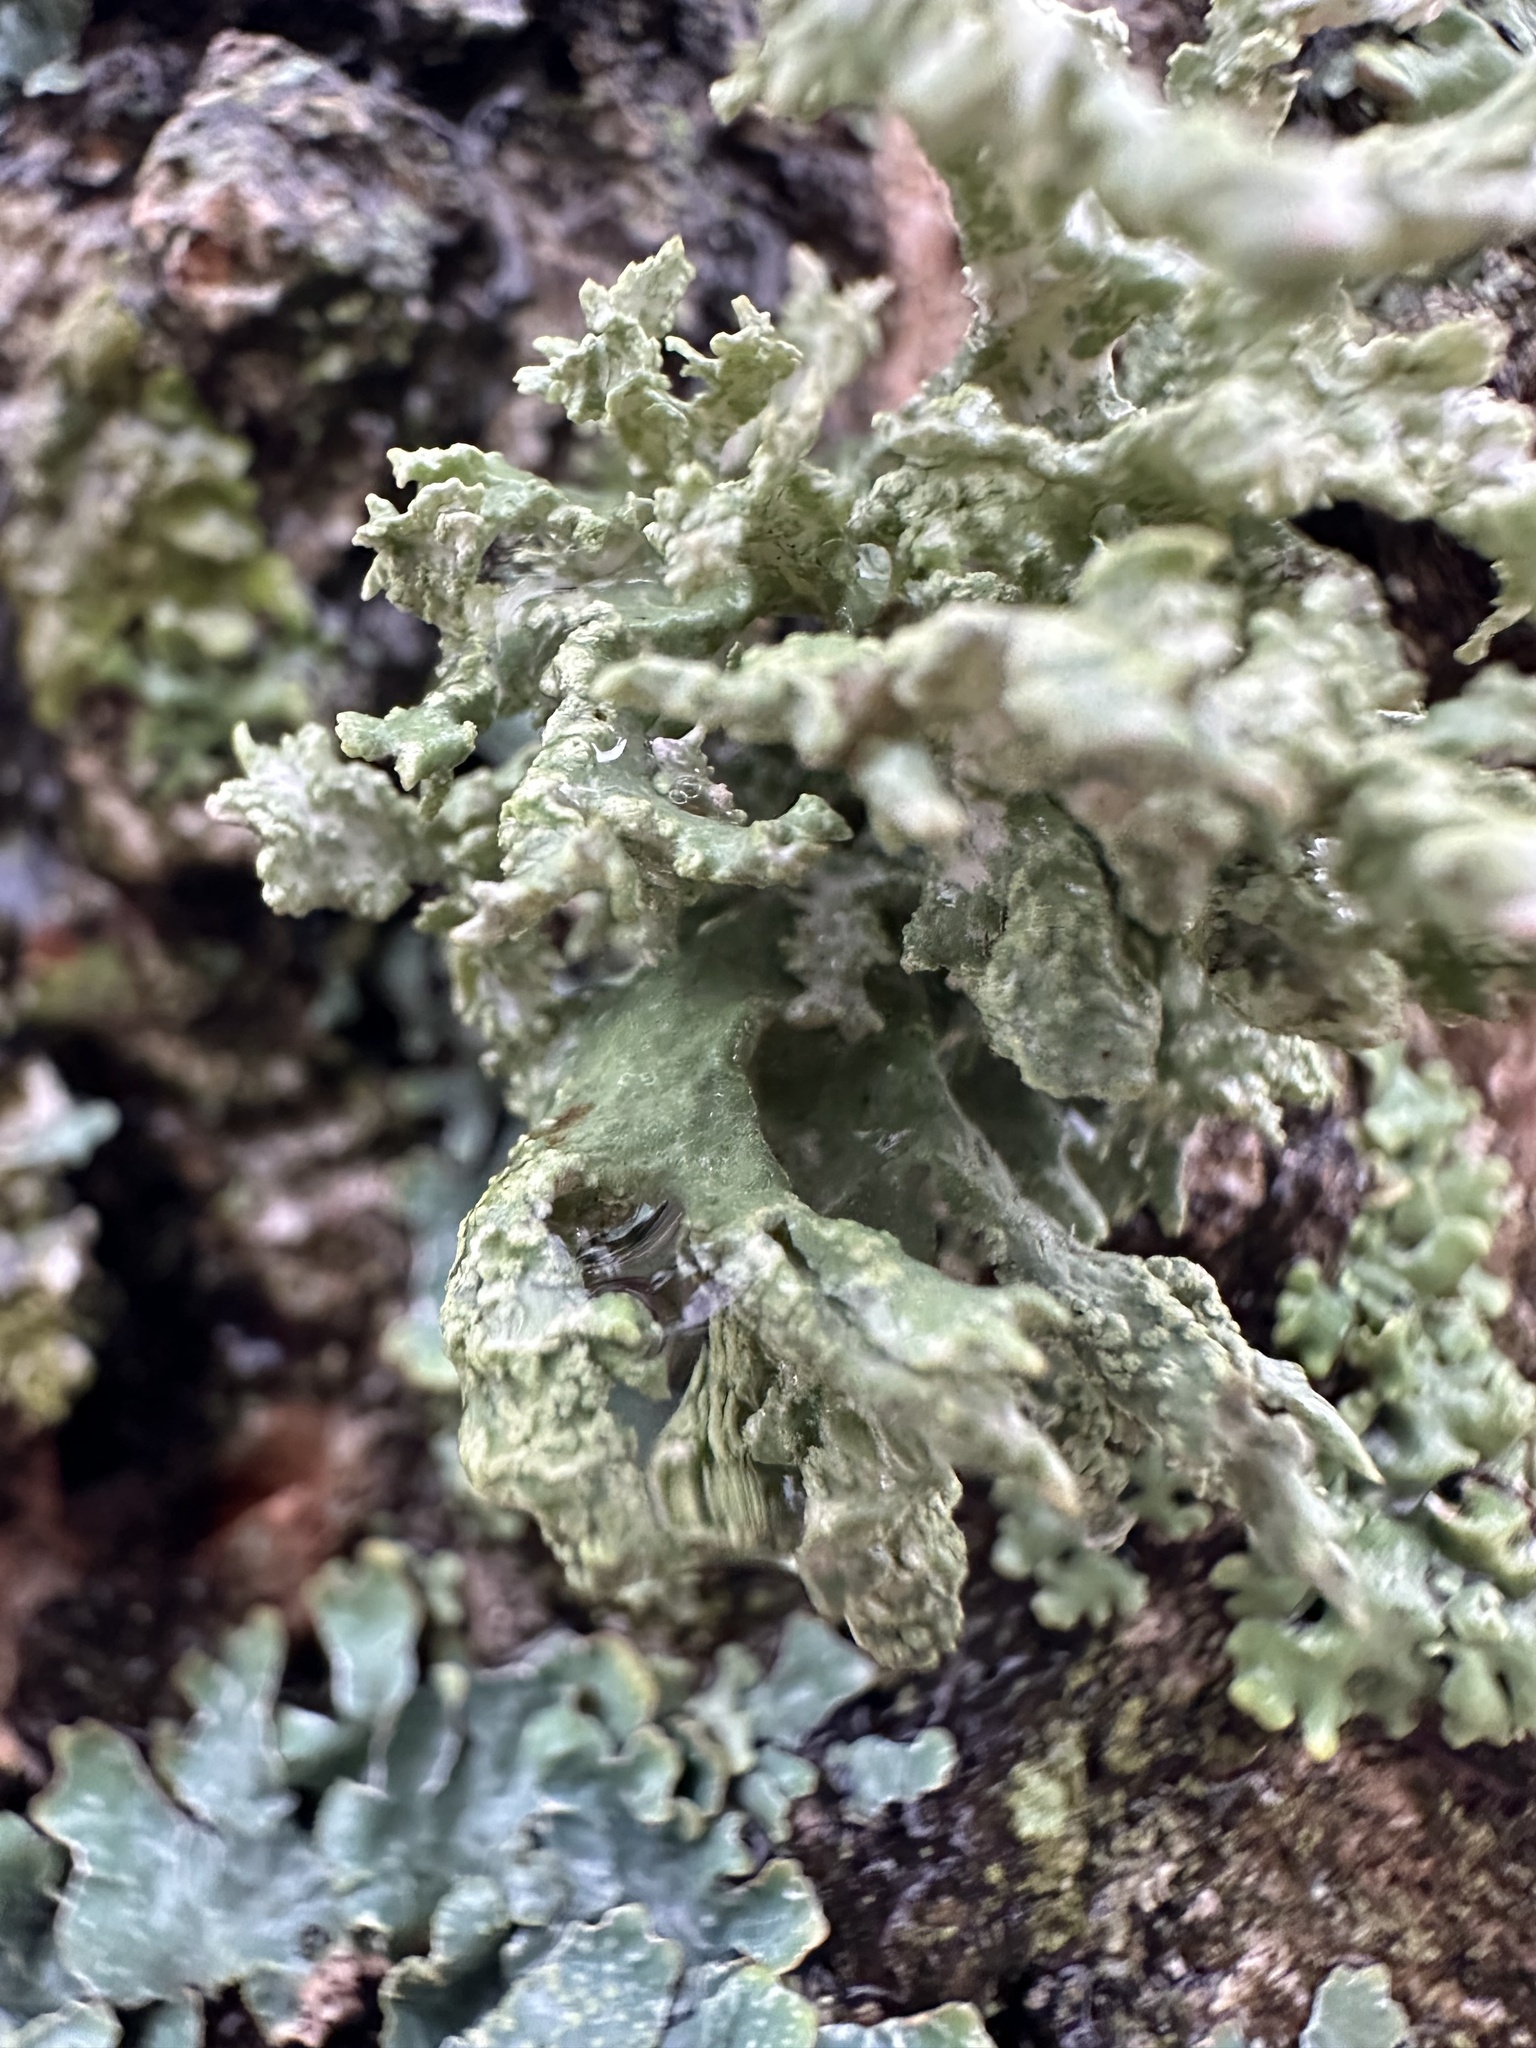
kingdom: Fungi
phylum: Ascomycota
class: Lecanoromycetes
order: Lecanorales
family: Parmeliaceae
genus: Evernia
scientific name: Evernia prunastri
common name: Oak moss
